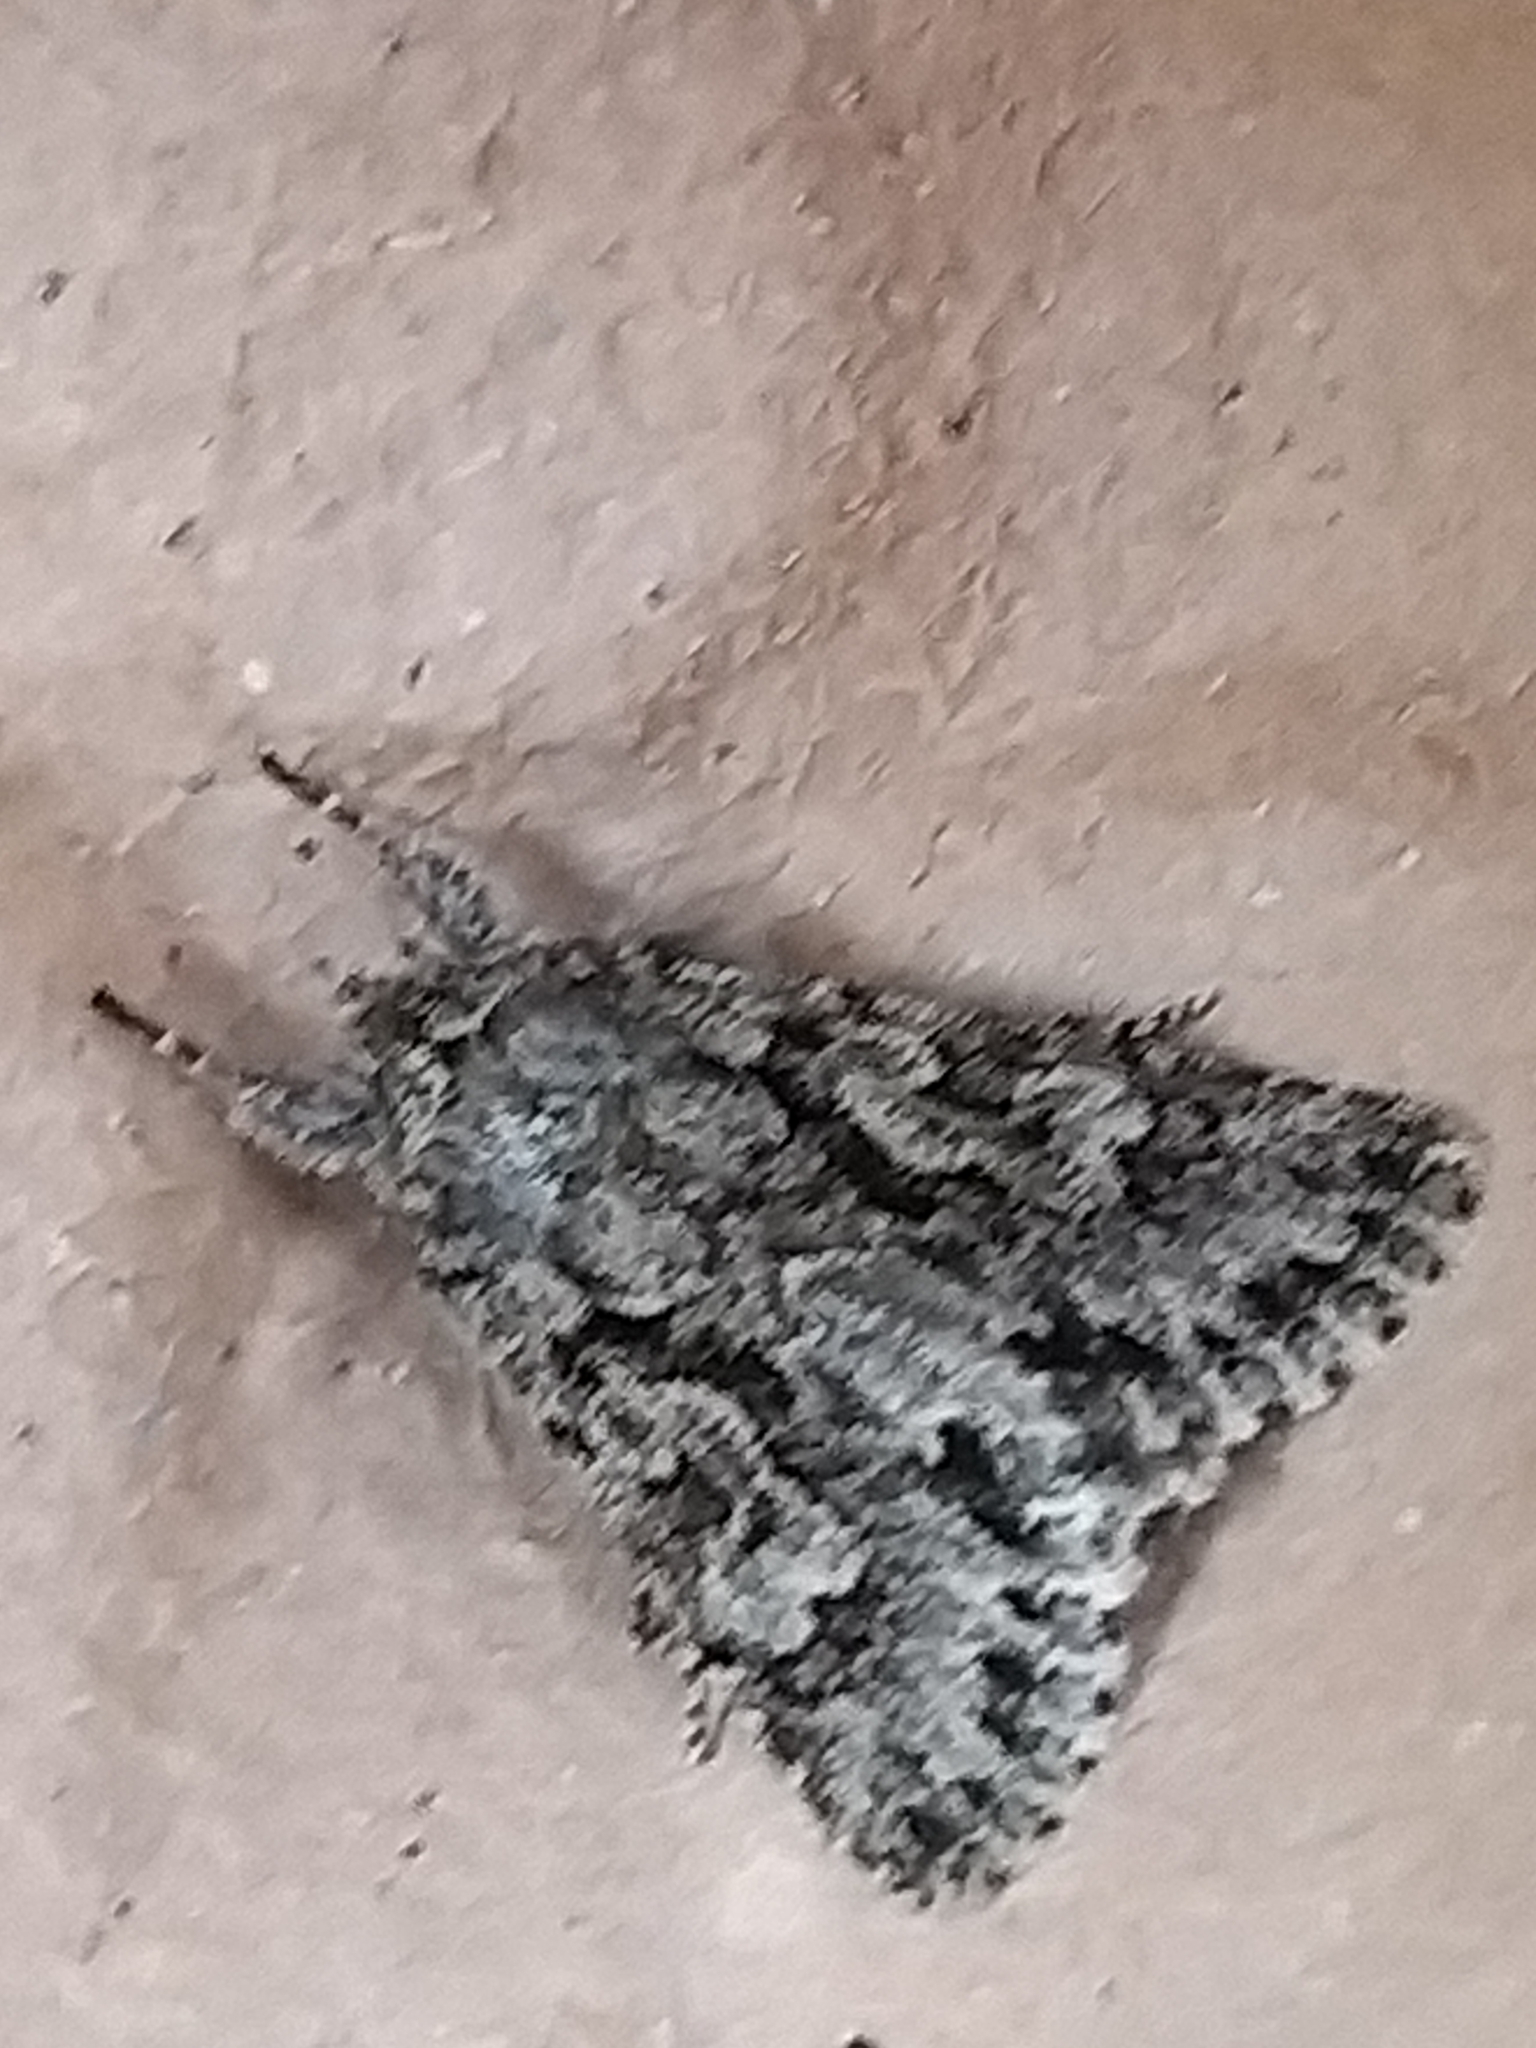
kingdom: Animalia
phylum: Arthropoda
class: Insecta
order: Lepidoptera
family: Noctuidae
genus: Xylocampa
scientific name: Xylocampa areola
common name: Early grey
